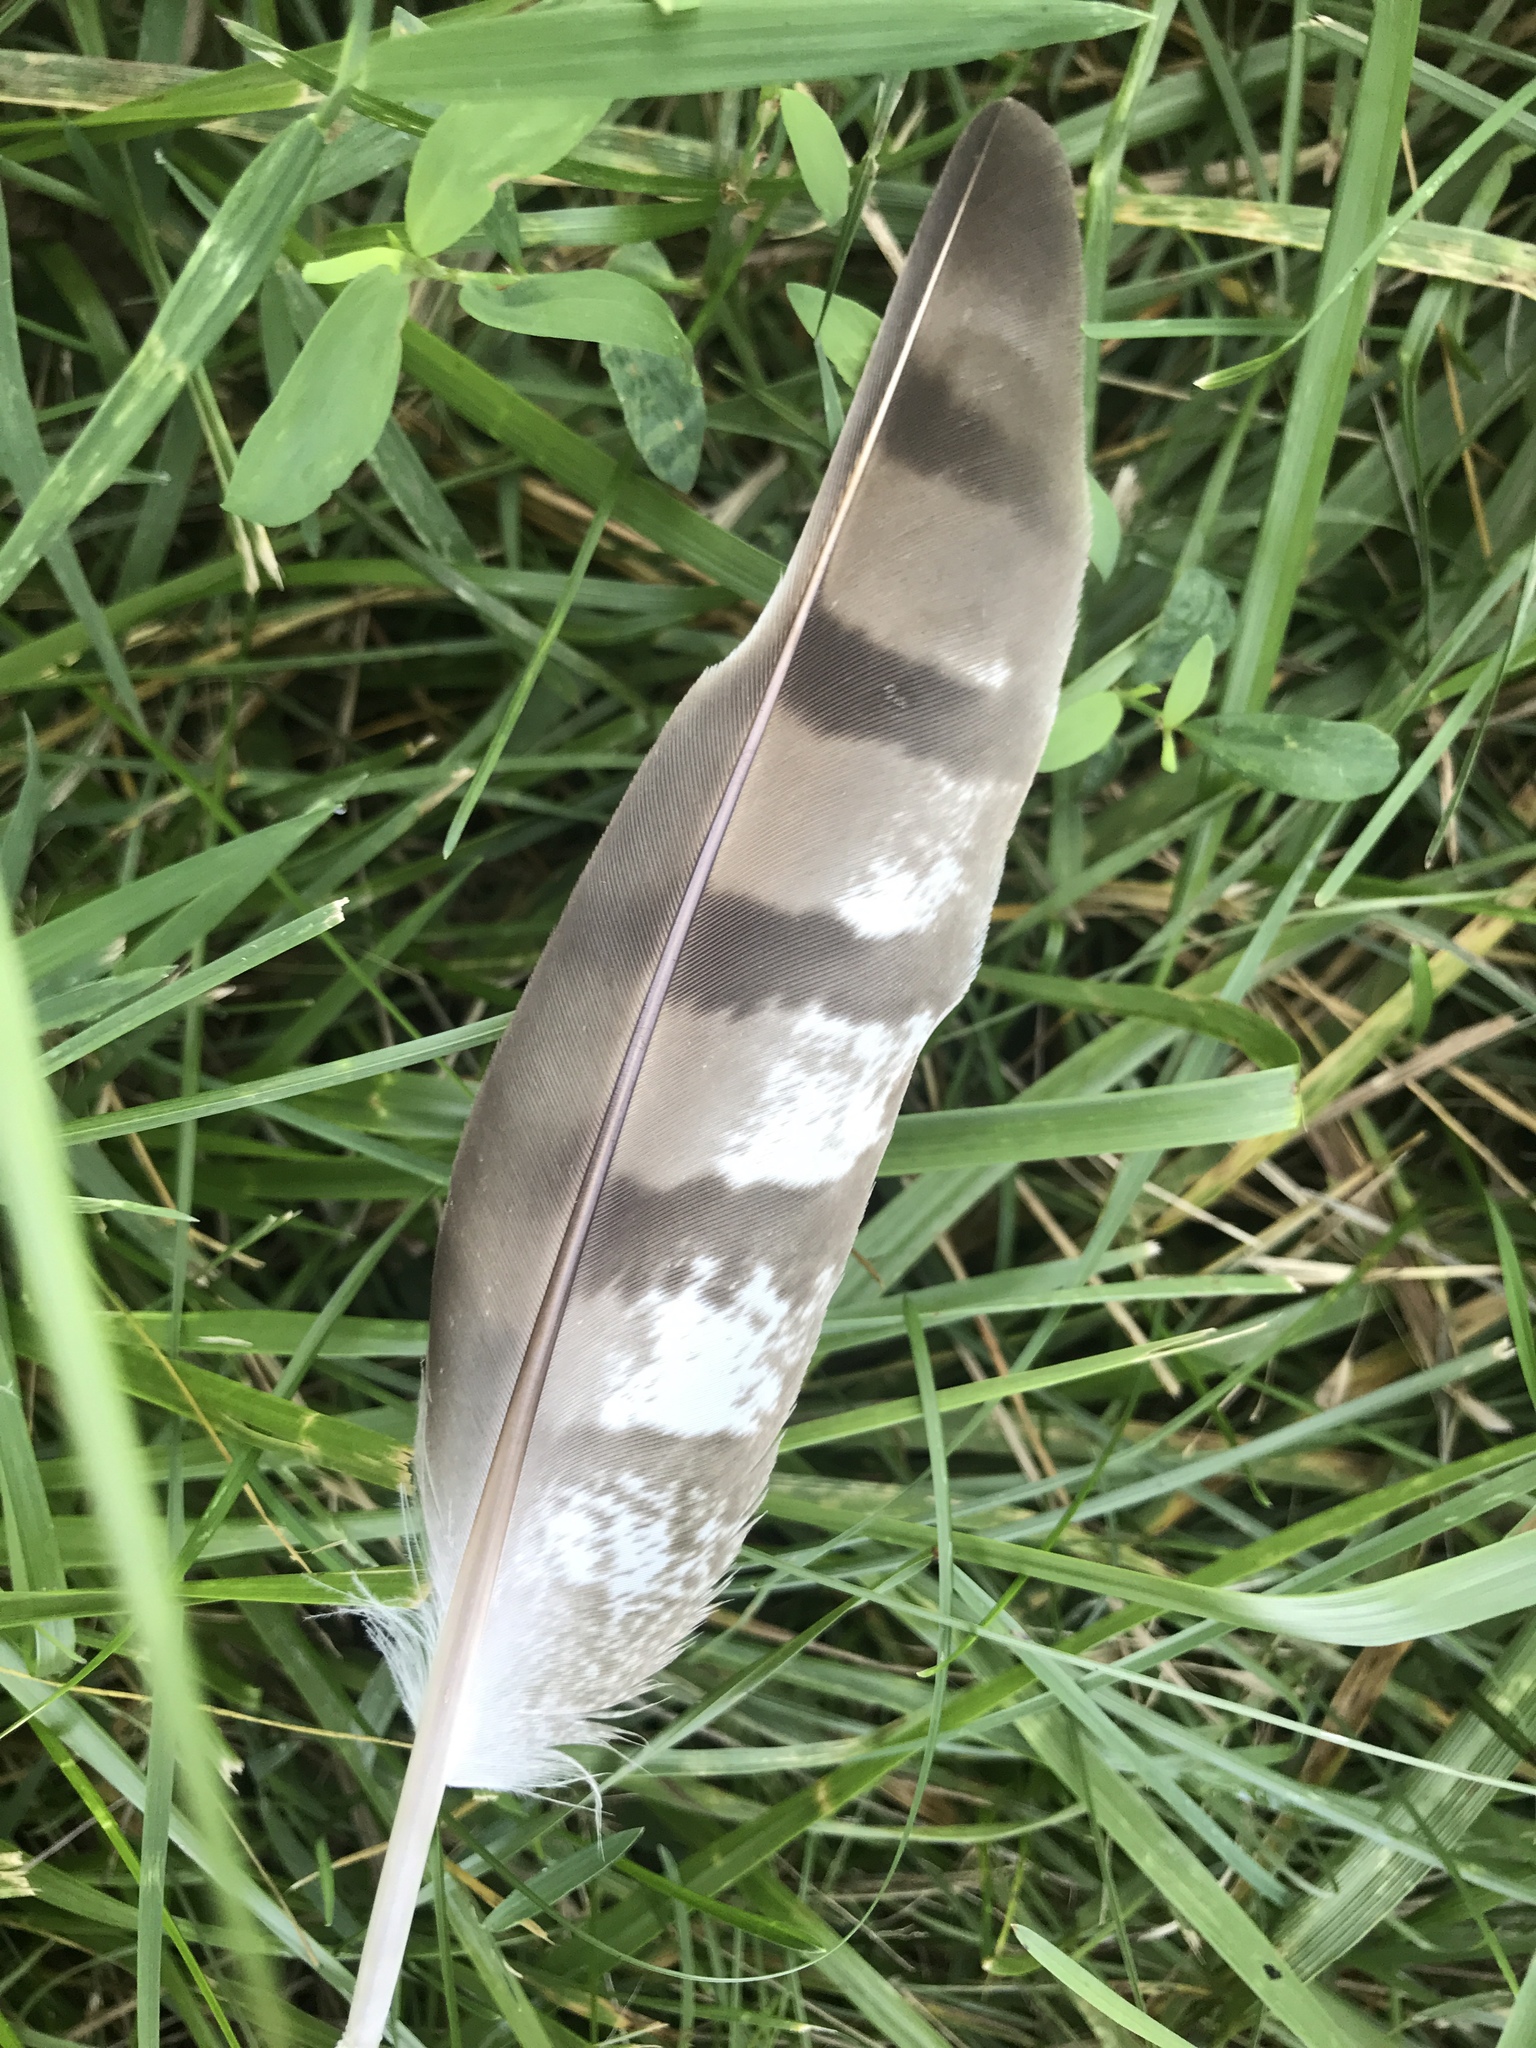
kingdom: Animalia
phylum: Chordata
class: Aves
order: Accipitriformes
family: Accipitridae
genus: Accipiter
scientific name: Accipiter cooperii
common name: Cooper's hawk
